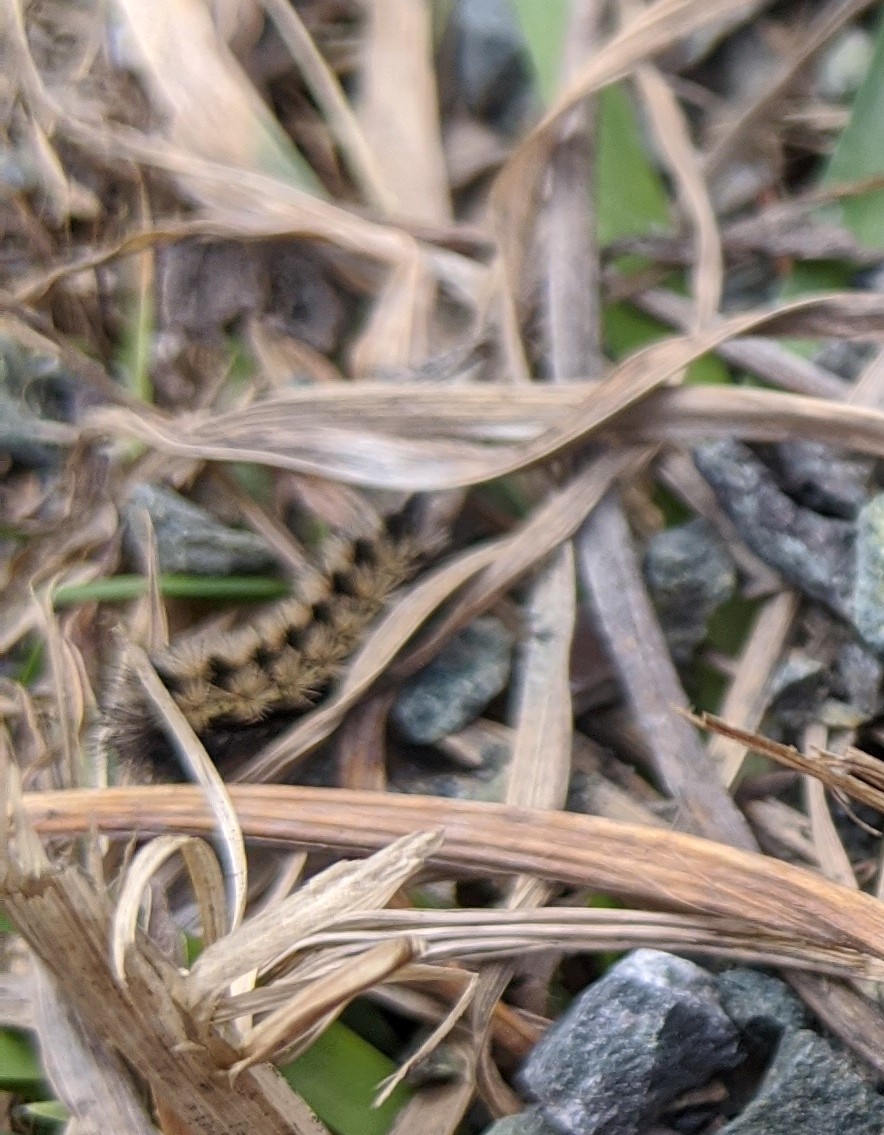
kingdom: Animalia
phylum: Arthropoda
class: Insecta
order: Lepidoptera
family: Erebidae
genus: Ctenucha
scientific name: Ctenucha virginica
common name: Virginia ctenucha moth
